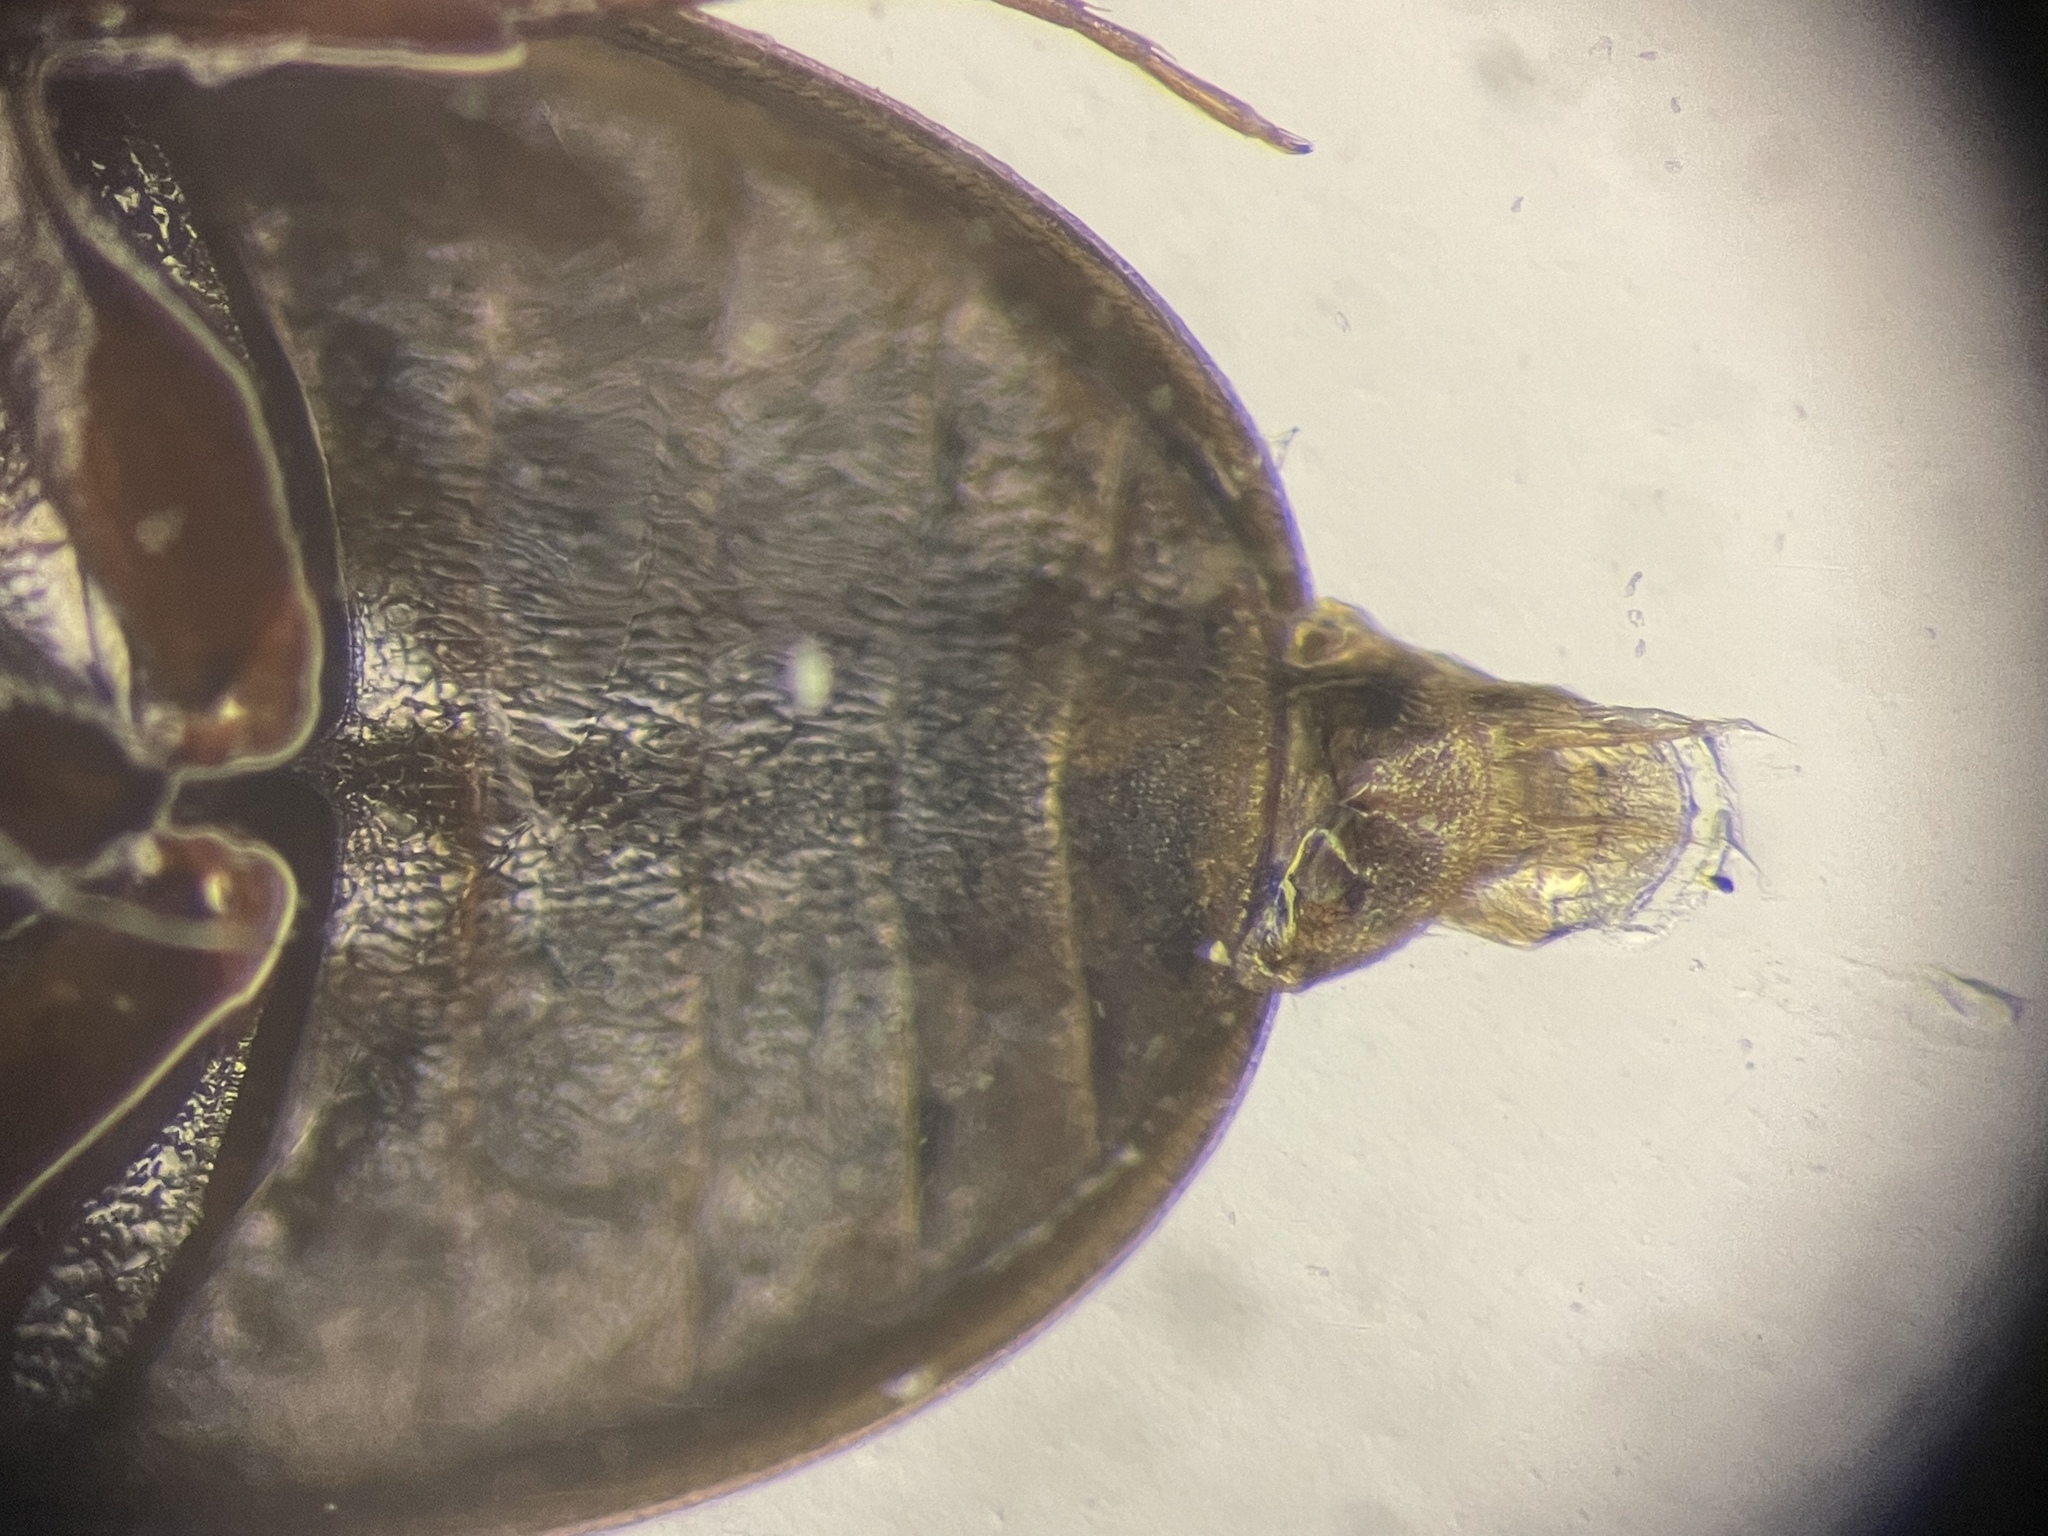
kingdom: Animalia
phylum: Arthropoda
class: Insecta
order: Coleoptera
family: Hydrophilidae
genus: Enochrus
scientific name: Enochrus hamiltoni
